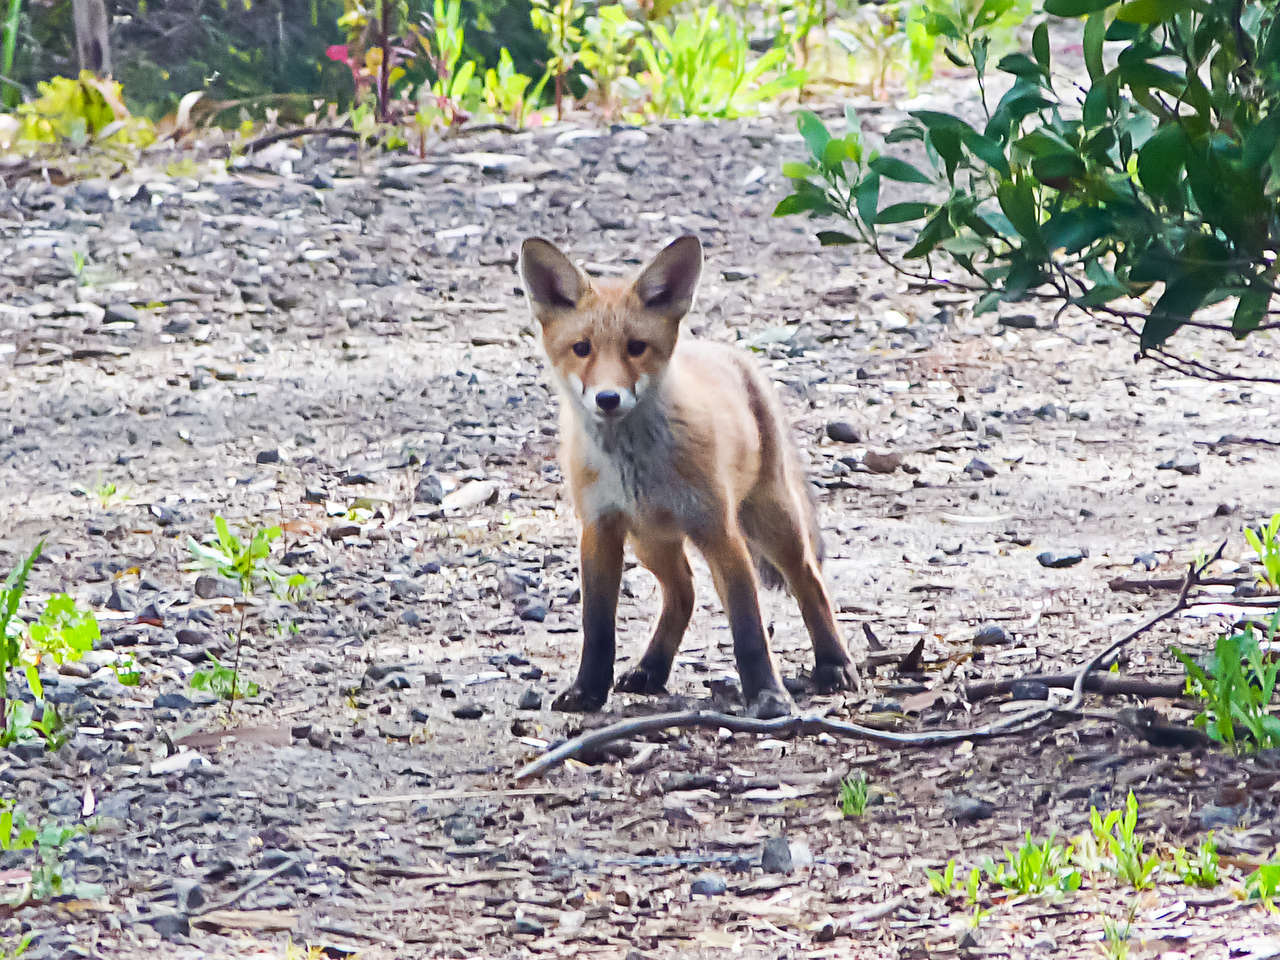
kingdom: Animalia
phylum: Chordata
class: Mammalia
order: Carnivora
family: Canidae
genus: Vulpes
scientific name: Vulpes vulpes
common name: Red fox
